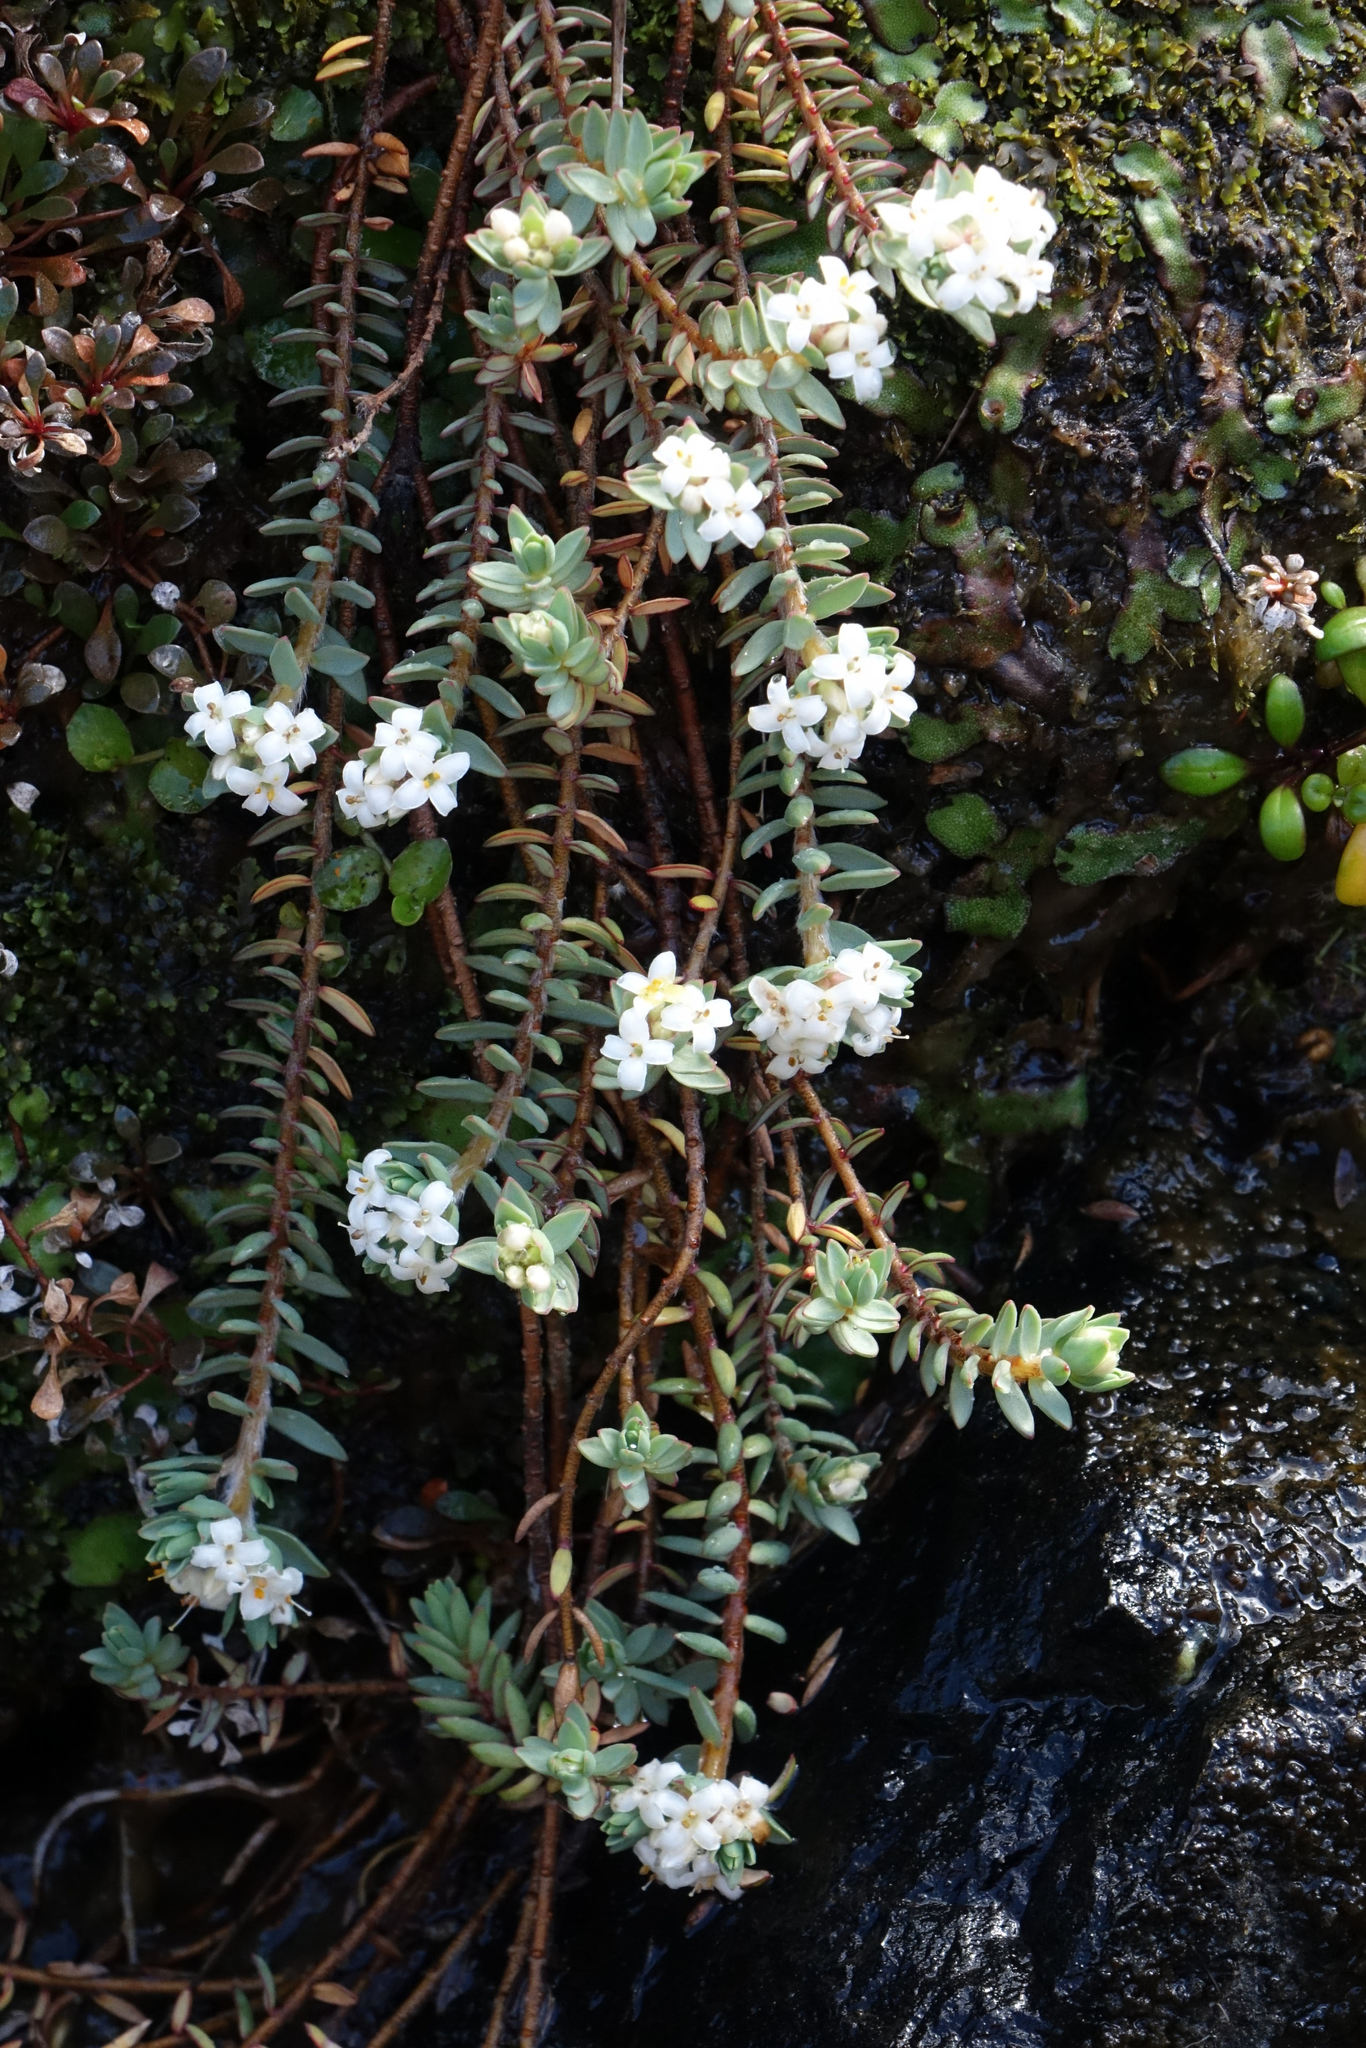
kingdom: Plantae
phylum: Tracheophyta
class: Magnoliopsida
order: Malvales
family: Thymelaeaceae
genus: Pimelea
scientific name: Pimelea prostrata
